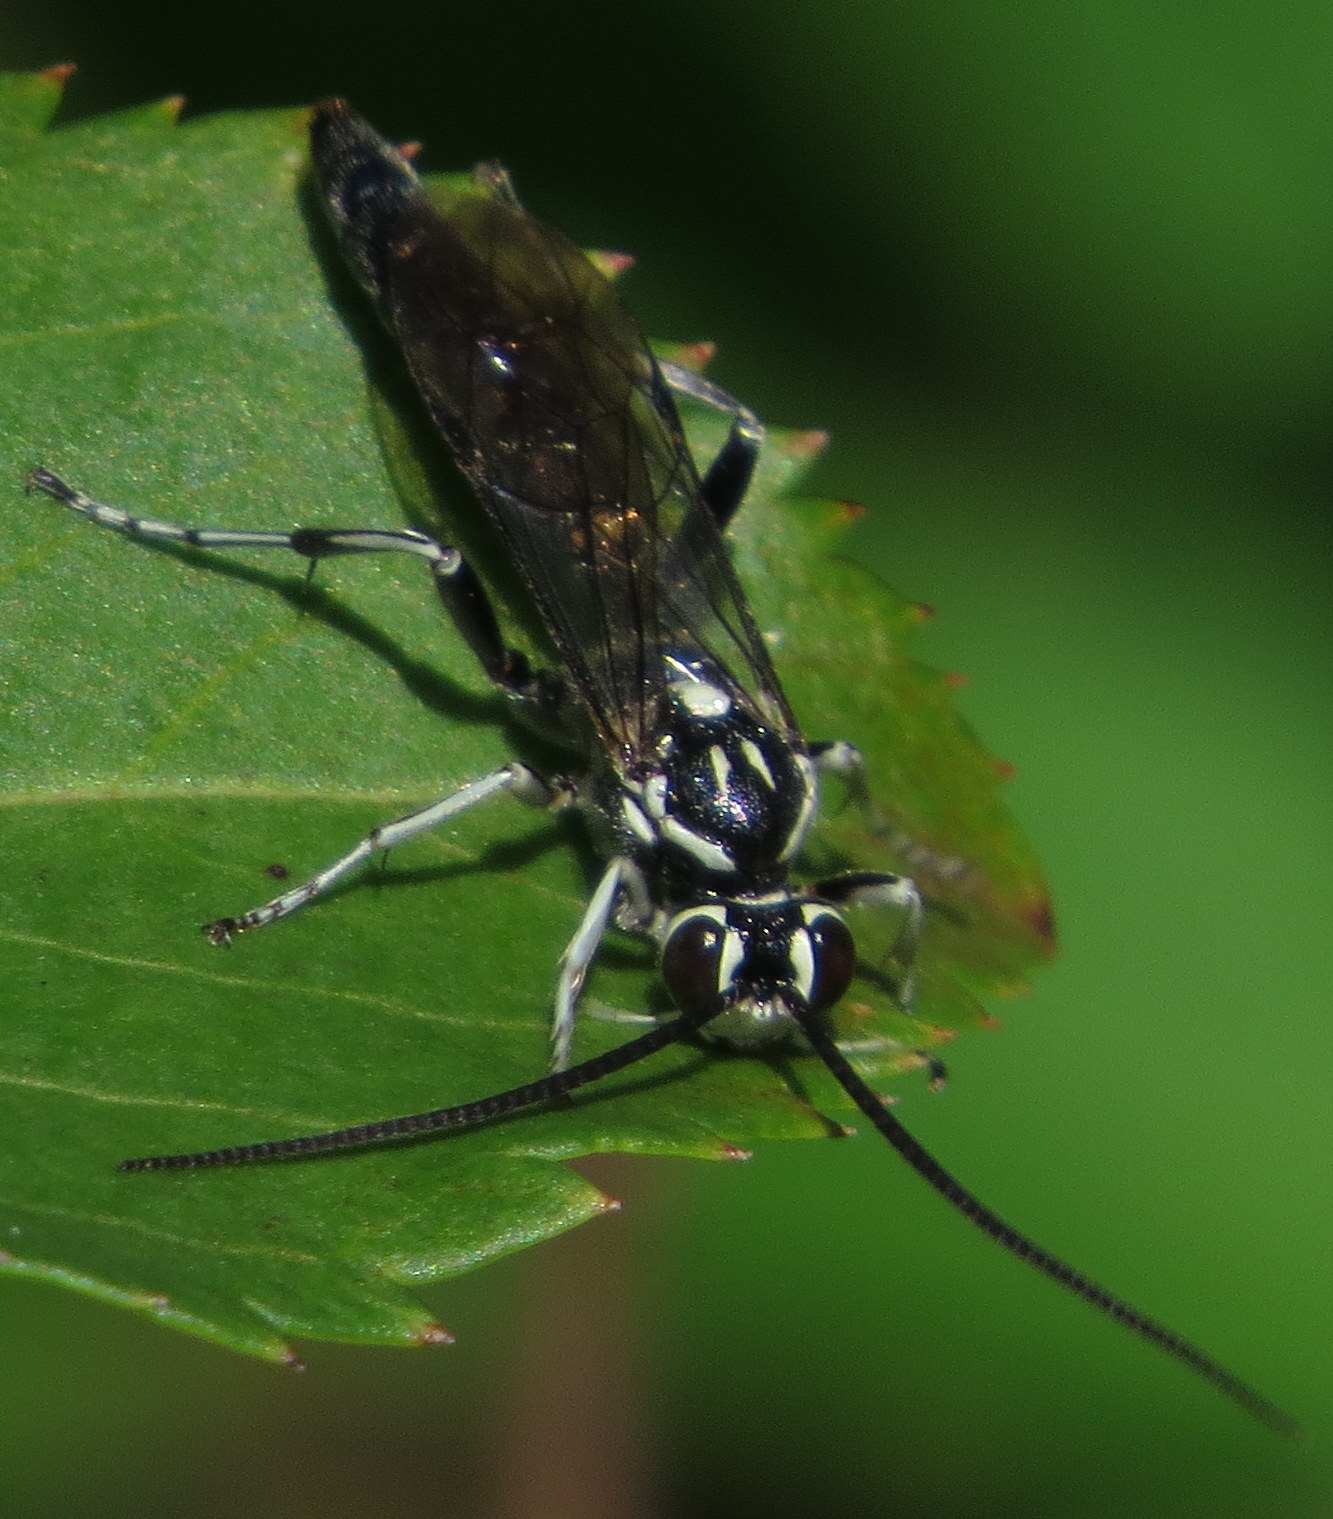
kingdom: Animalia
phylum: Arthropoda
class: Insecta
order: Hymenoptera
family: Ichneumonidae
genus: Coelichneumon
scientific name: Coelichneumon azotus
